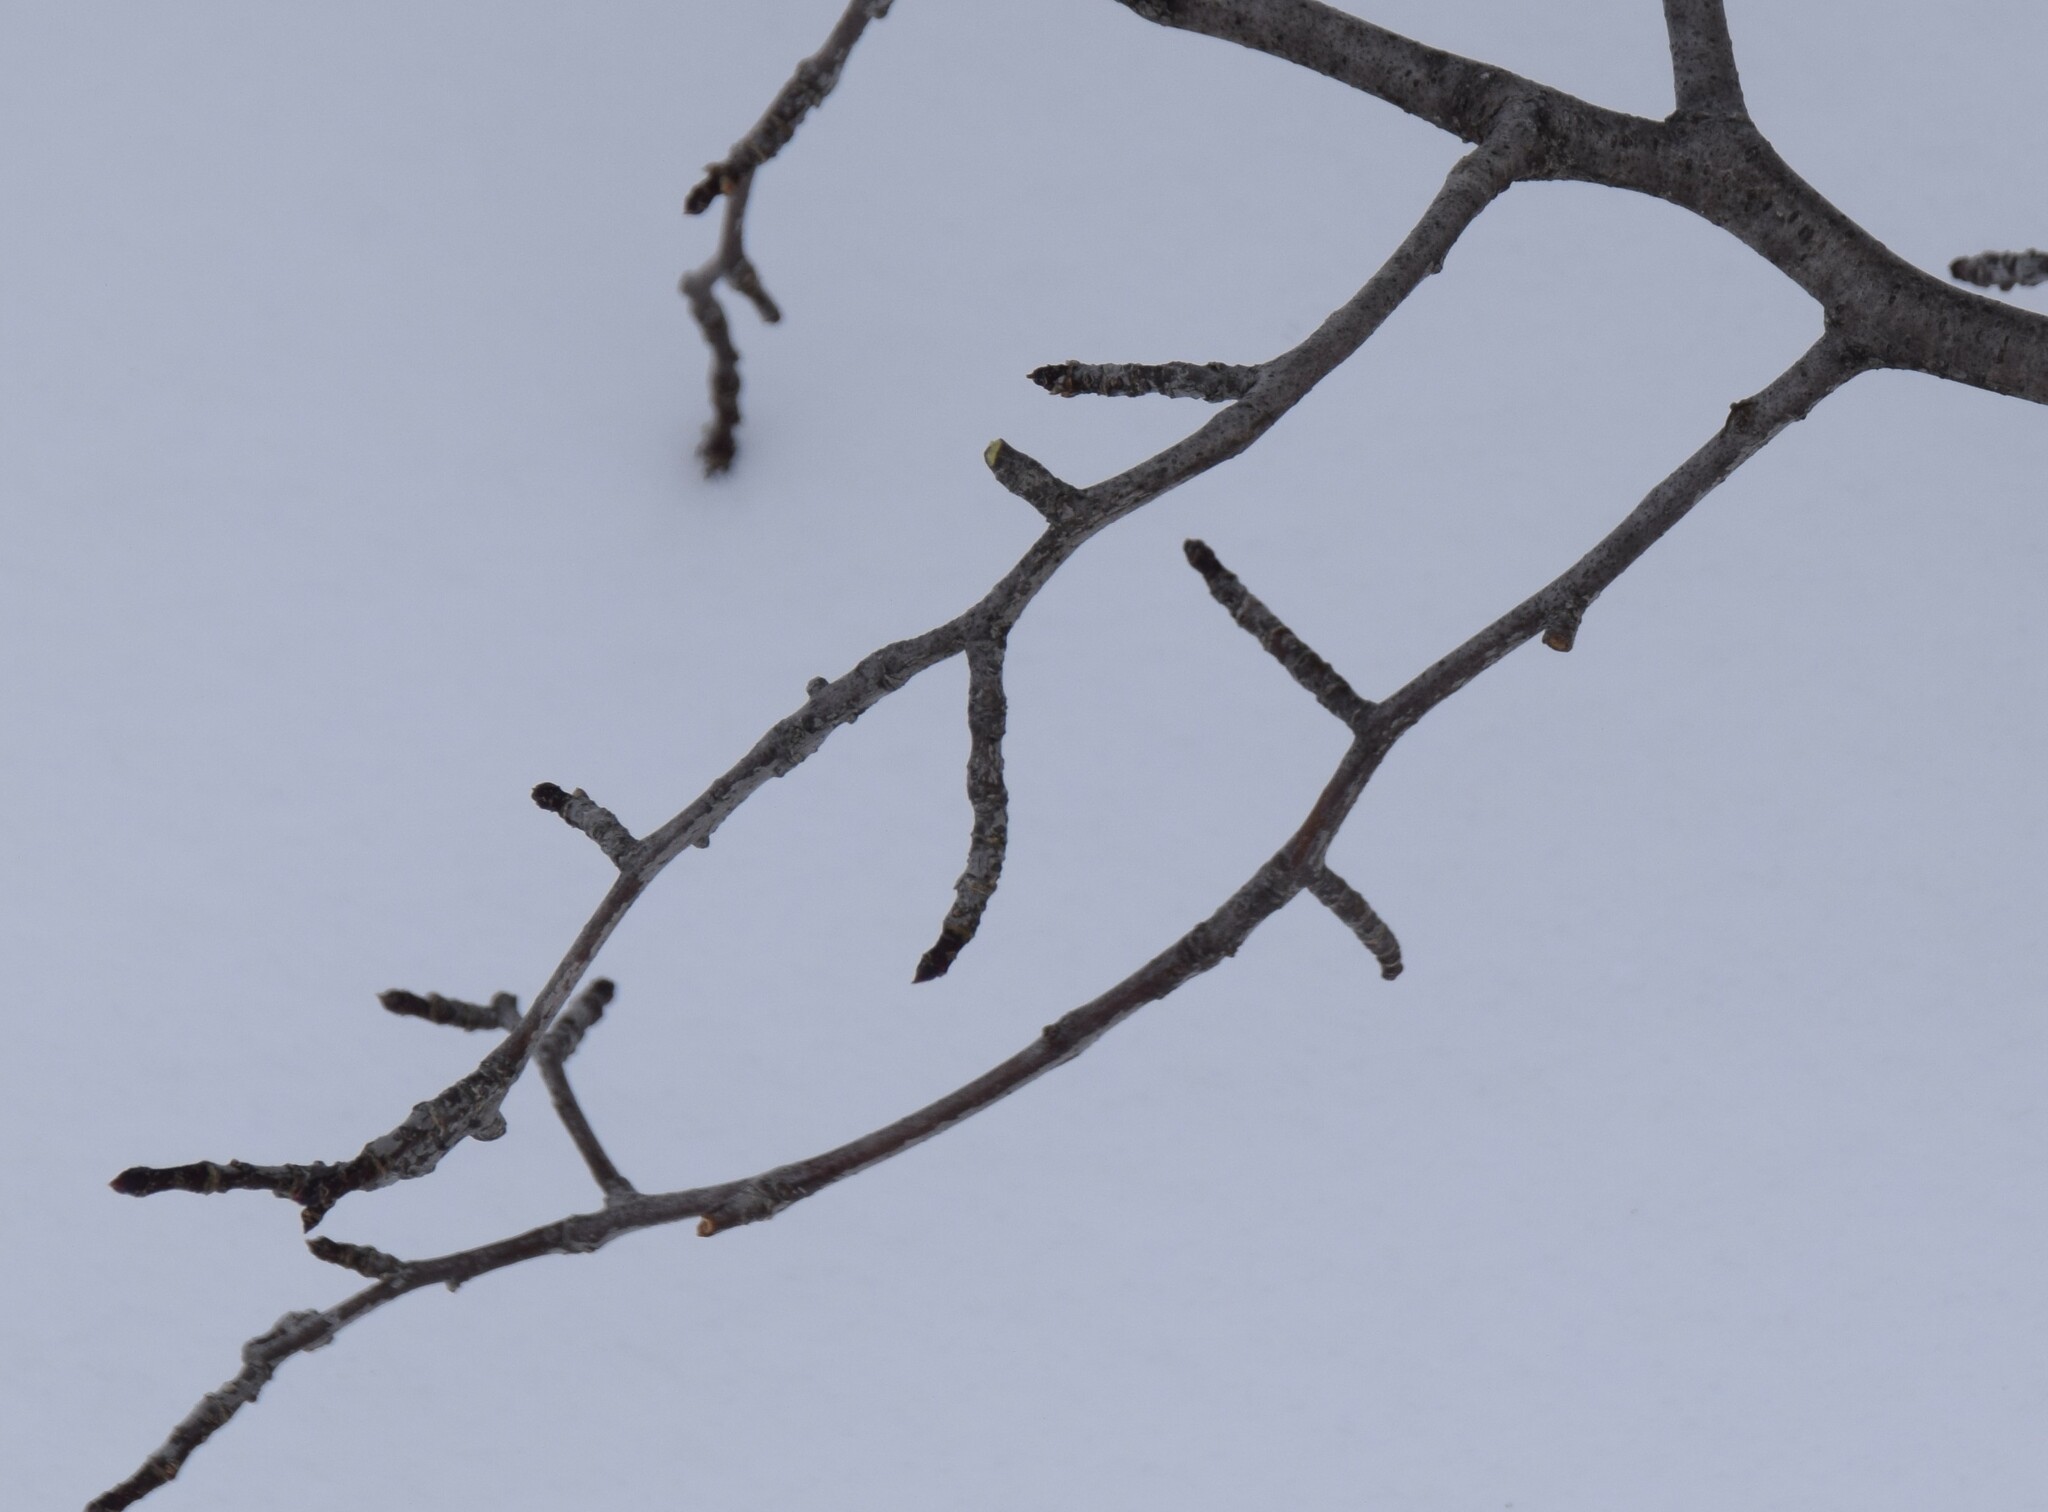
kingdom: Plantae
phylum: Tracheophyta
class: Magnoliopsida
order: Aquifoliales
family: Aquifoliaceae
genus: Ilex
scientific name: Ilex mucronata
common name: Catberry
